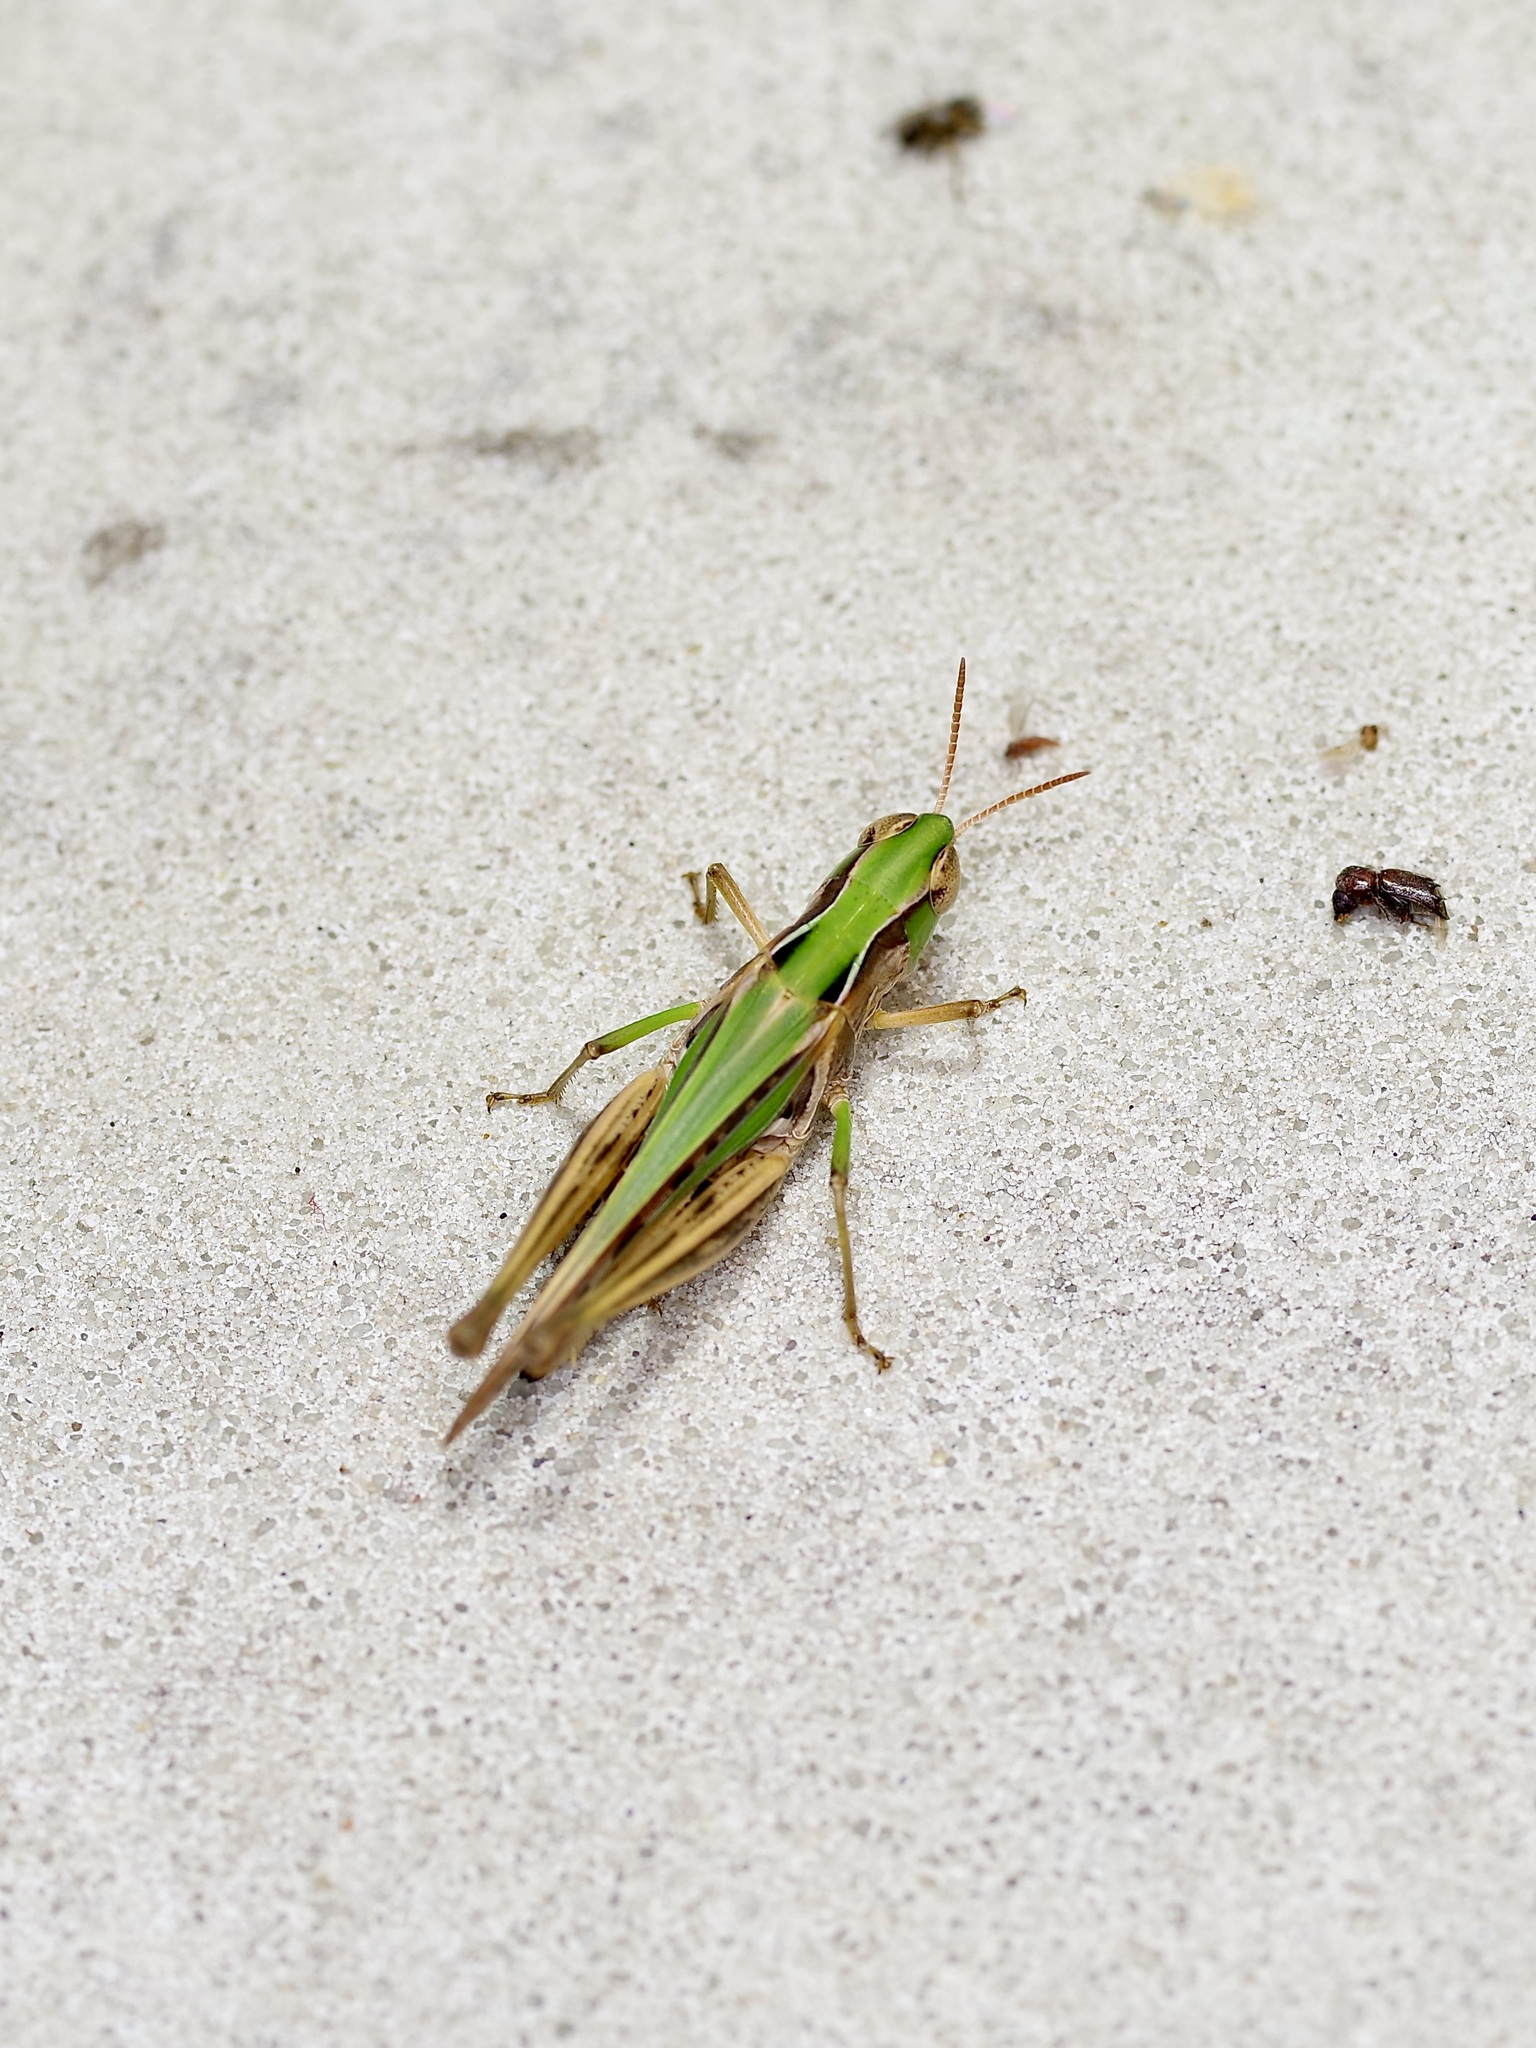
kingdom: Animalia
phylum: Arthropoda
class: Insecta
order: Orthoptera
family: Acrididae
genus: Orphulella
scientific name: Orphulella speciosa
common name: Pasture grasshopper
